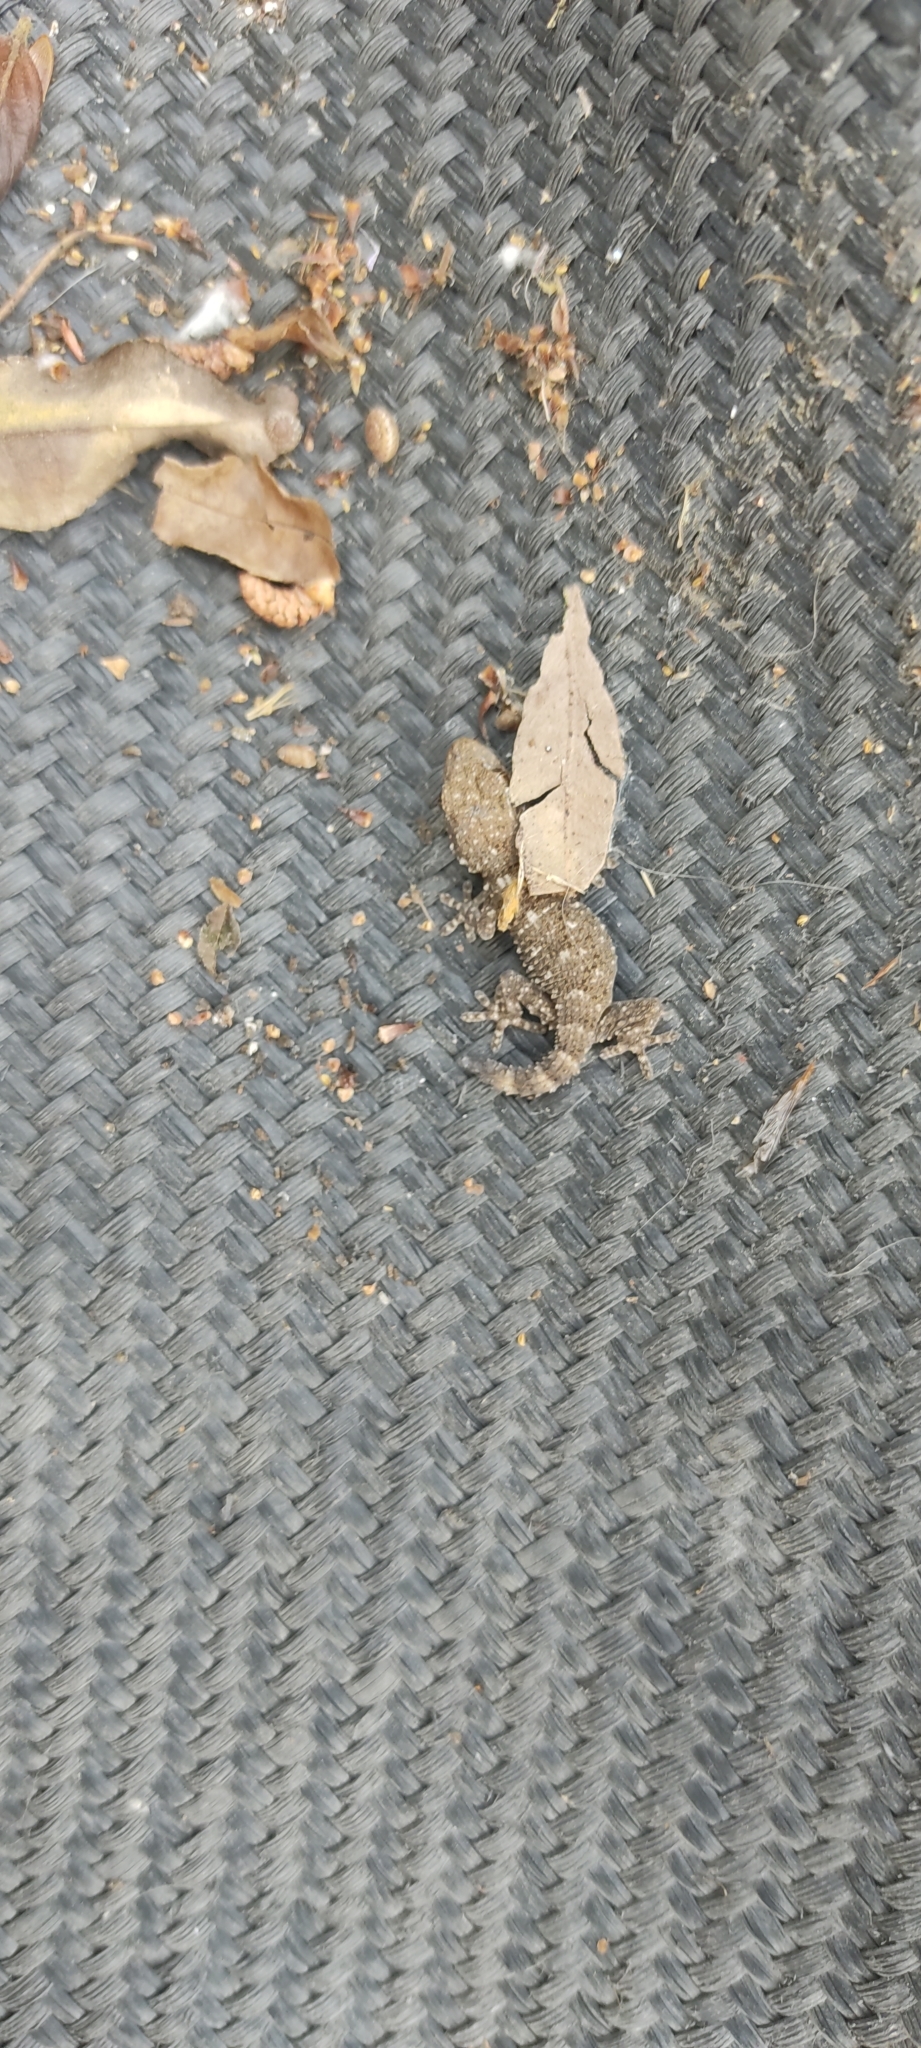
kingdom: Animalia
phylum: Chordata
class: Squamata
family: Phyllodactylidae
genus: Tarentola
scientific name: Tarentola mauritanica
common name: Moorish gecko
